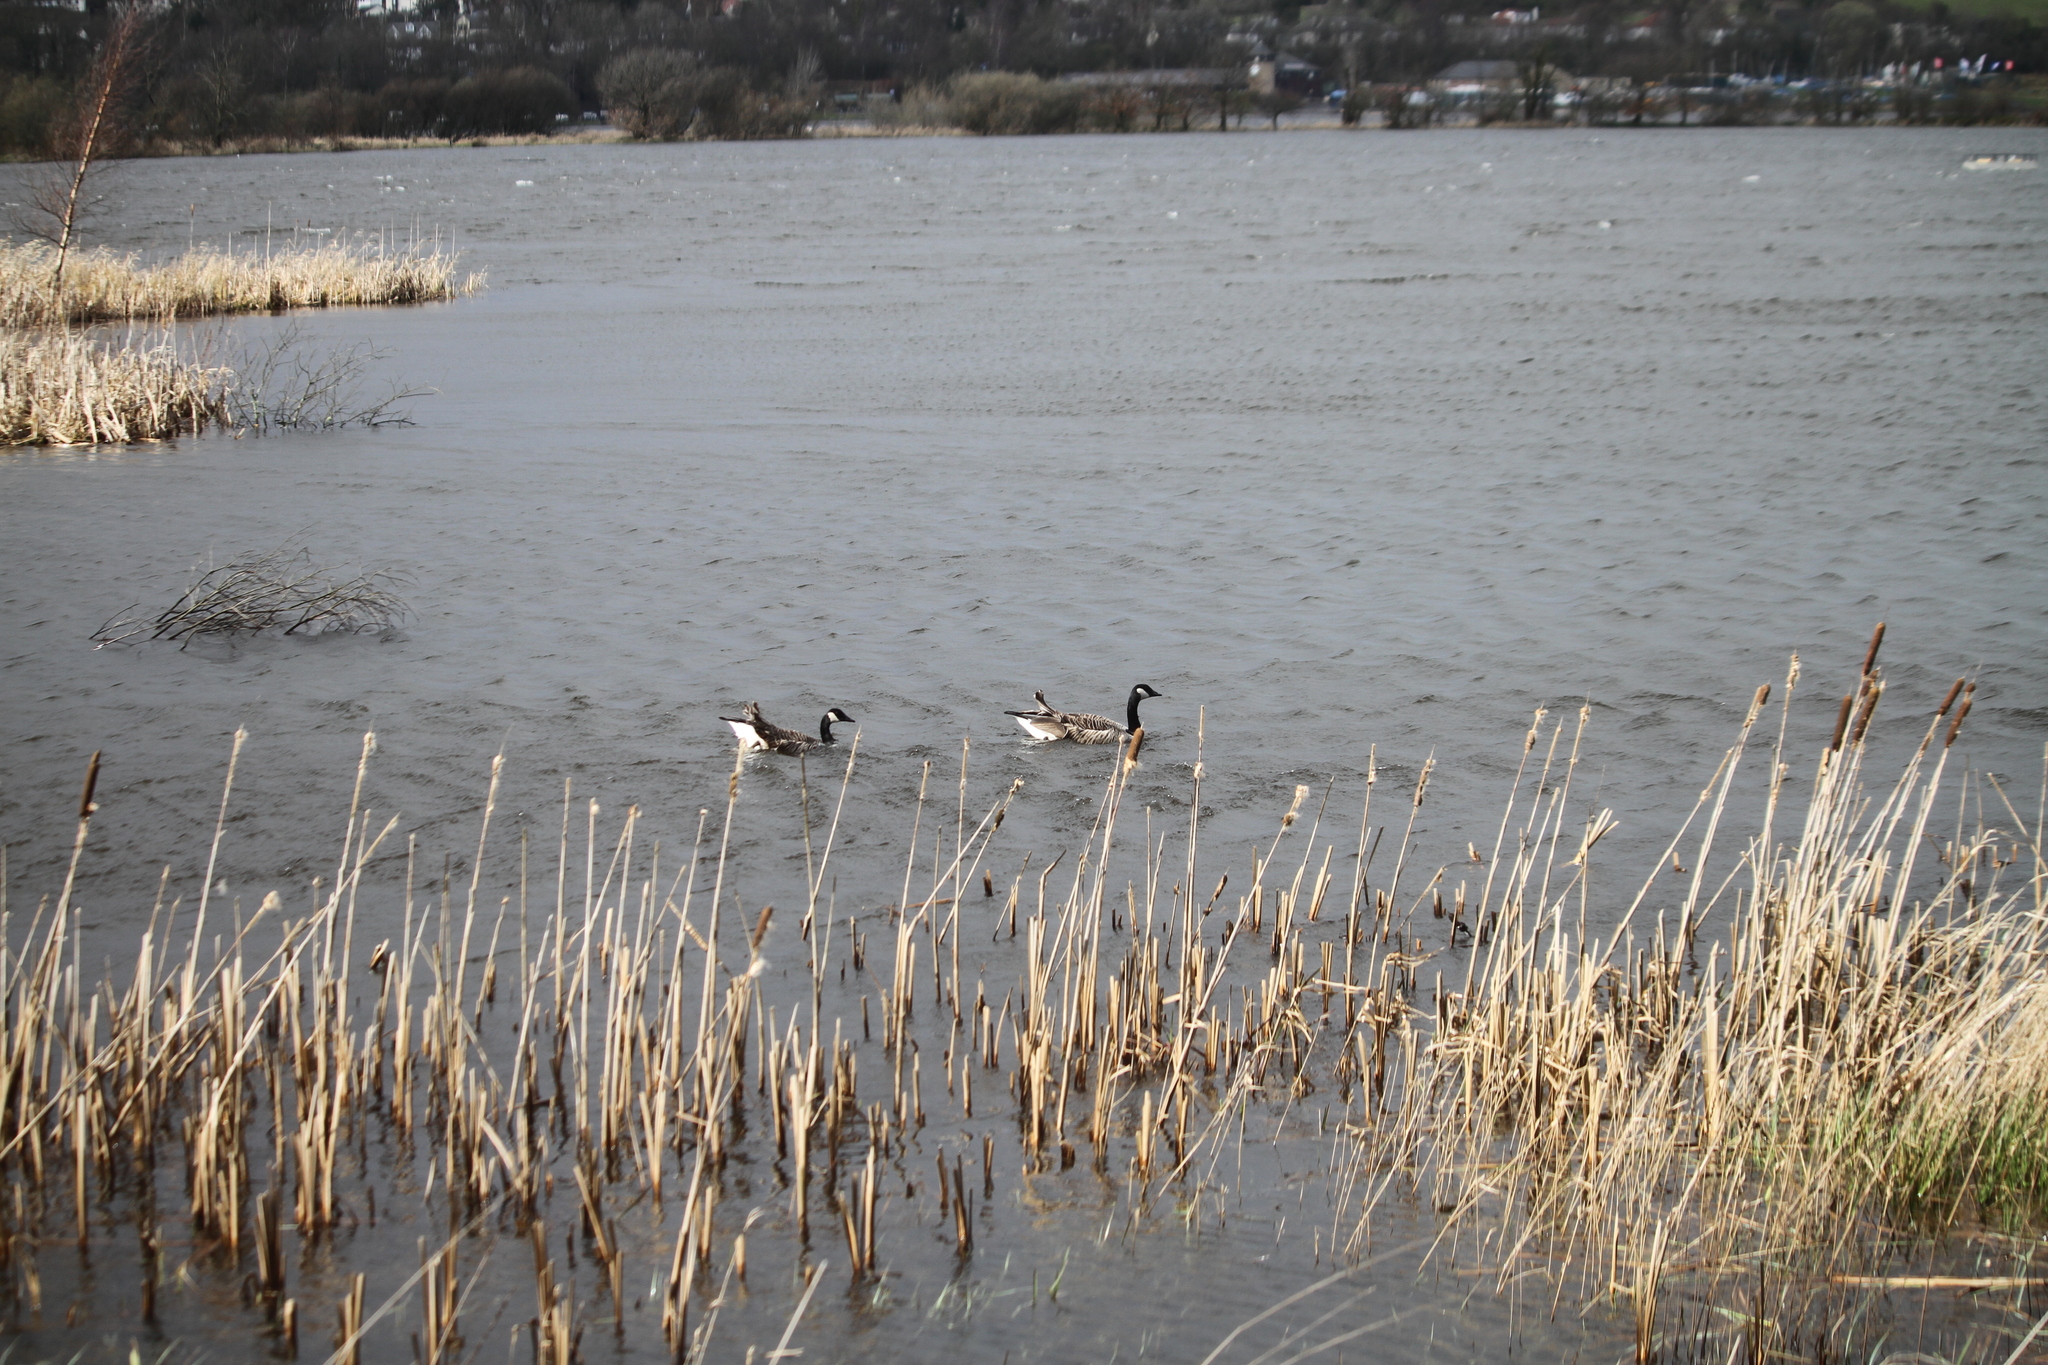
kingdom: Animalia
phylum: Chordata
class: Aves
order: Anseriformes
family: Anatidae
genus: Branta
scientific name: Branta canadensis
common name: Canada goose
